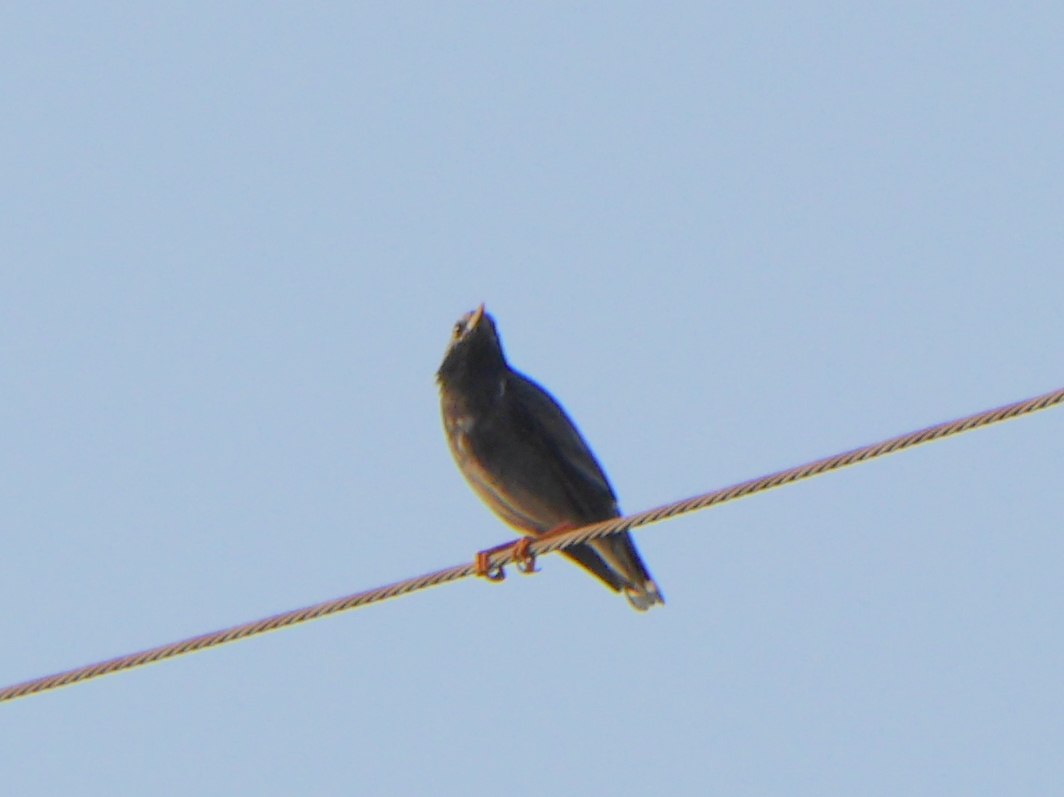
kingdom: Animalia
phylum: Chordata
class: Aves
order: Passeriformes
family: Sturnidae
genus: Spodiopsar
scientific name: Spodiopsar cineraceus
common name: White-cheeked starling
